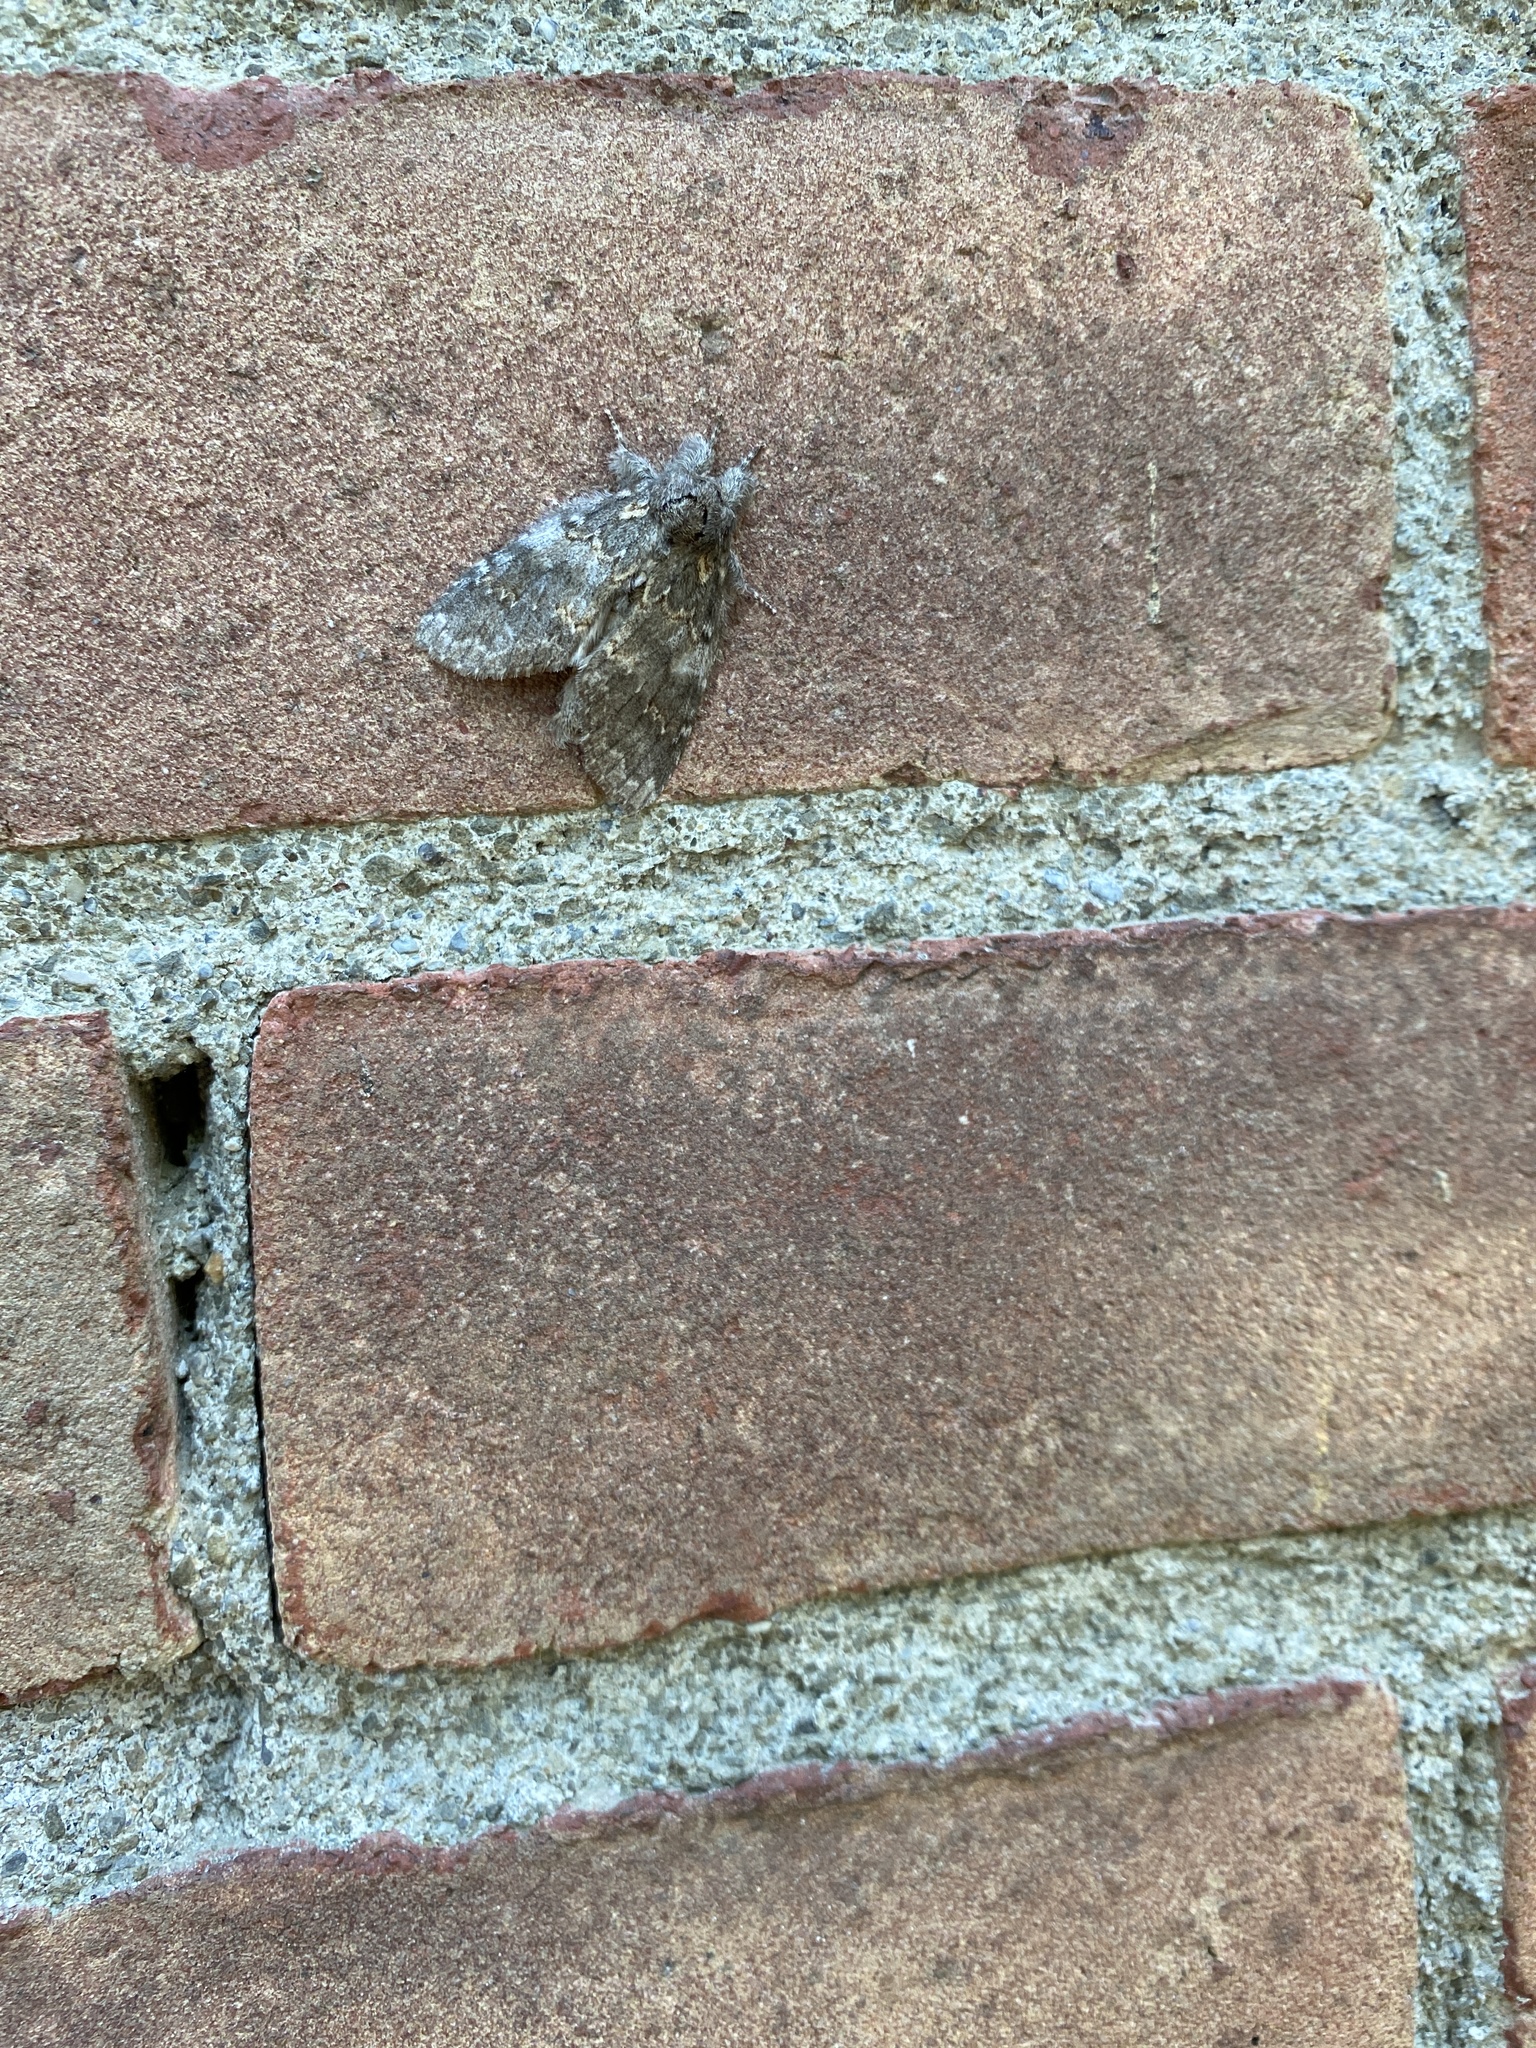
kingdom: Animalia
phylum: Arthropoda
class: Insecta
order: Lepidoptera
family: Notodontidae
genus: Peridea
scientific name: Peridea angulosa
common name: Angulose prominent
